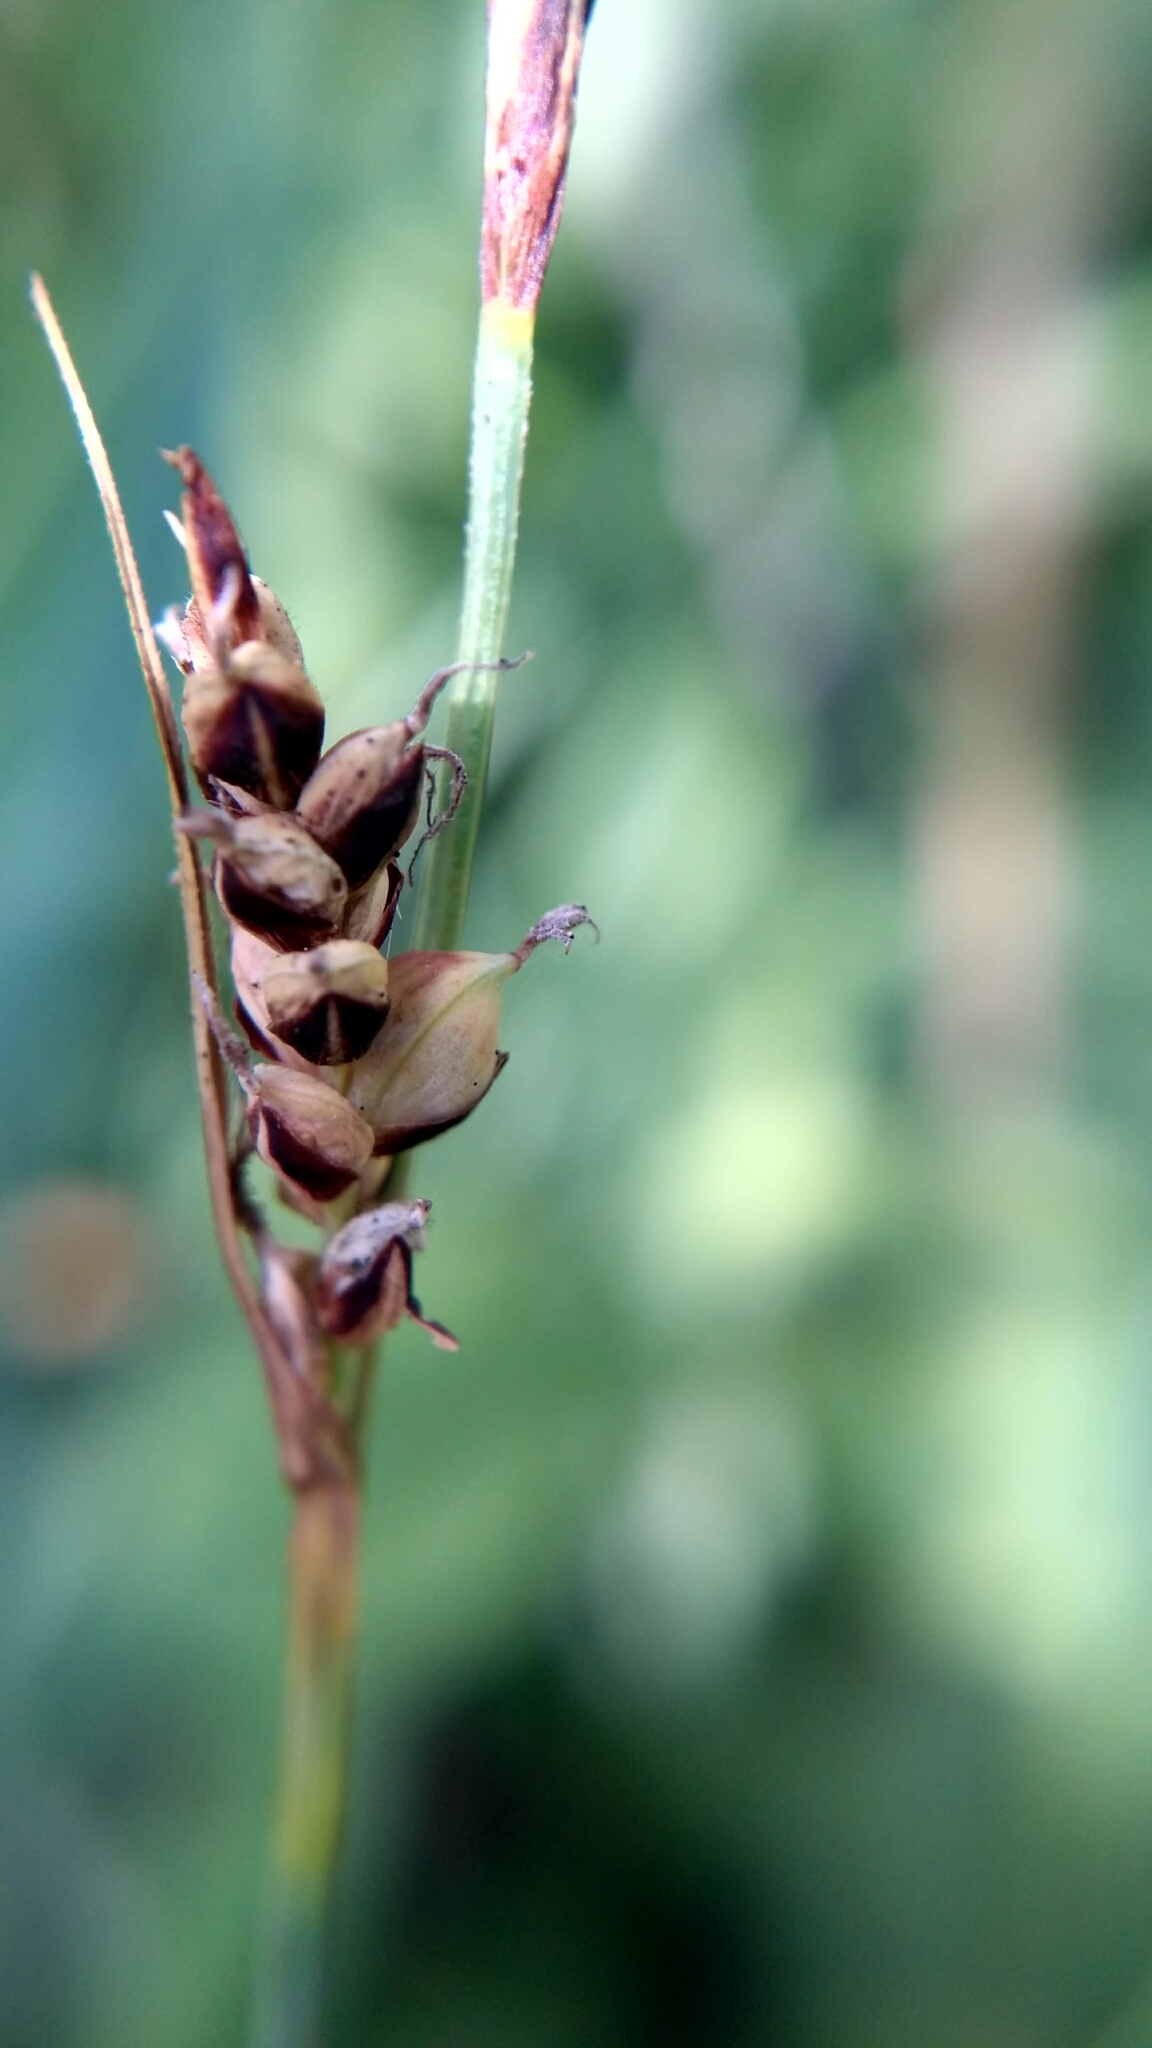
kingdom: Plantae
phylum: Tracheophyta
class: Liliopsida
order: Poales
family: Cyperaceae
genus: Carex
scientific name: Carex panicea
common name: Carnation sedge
